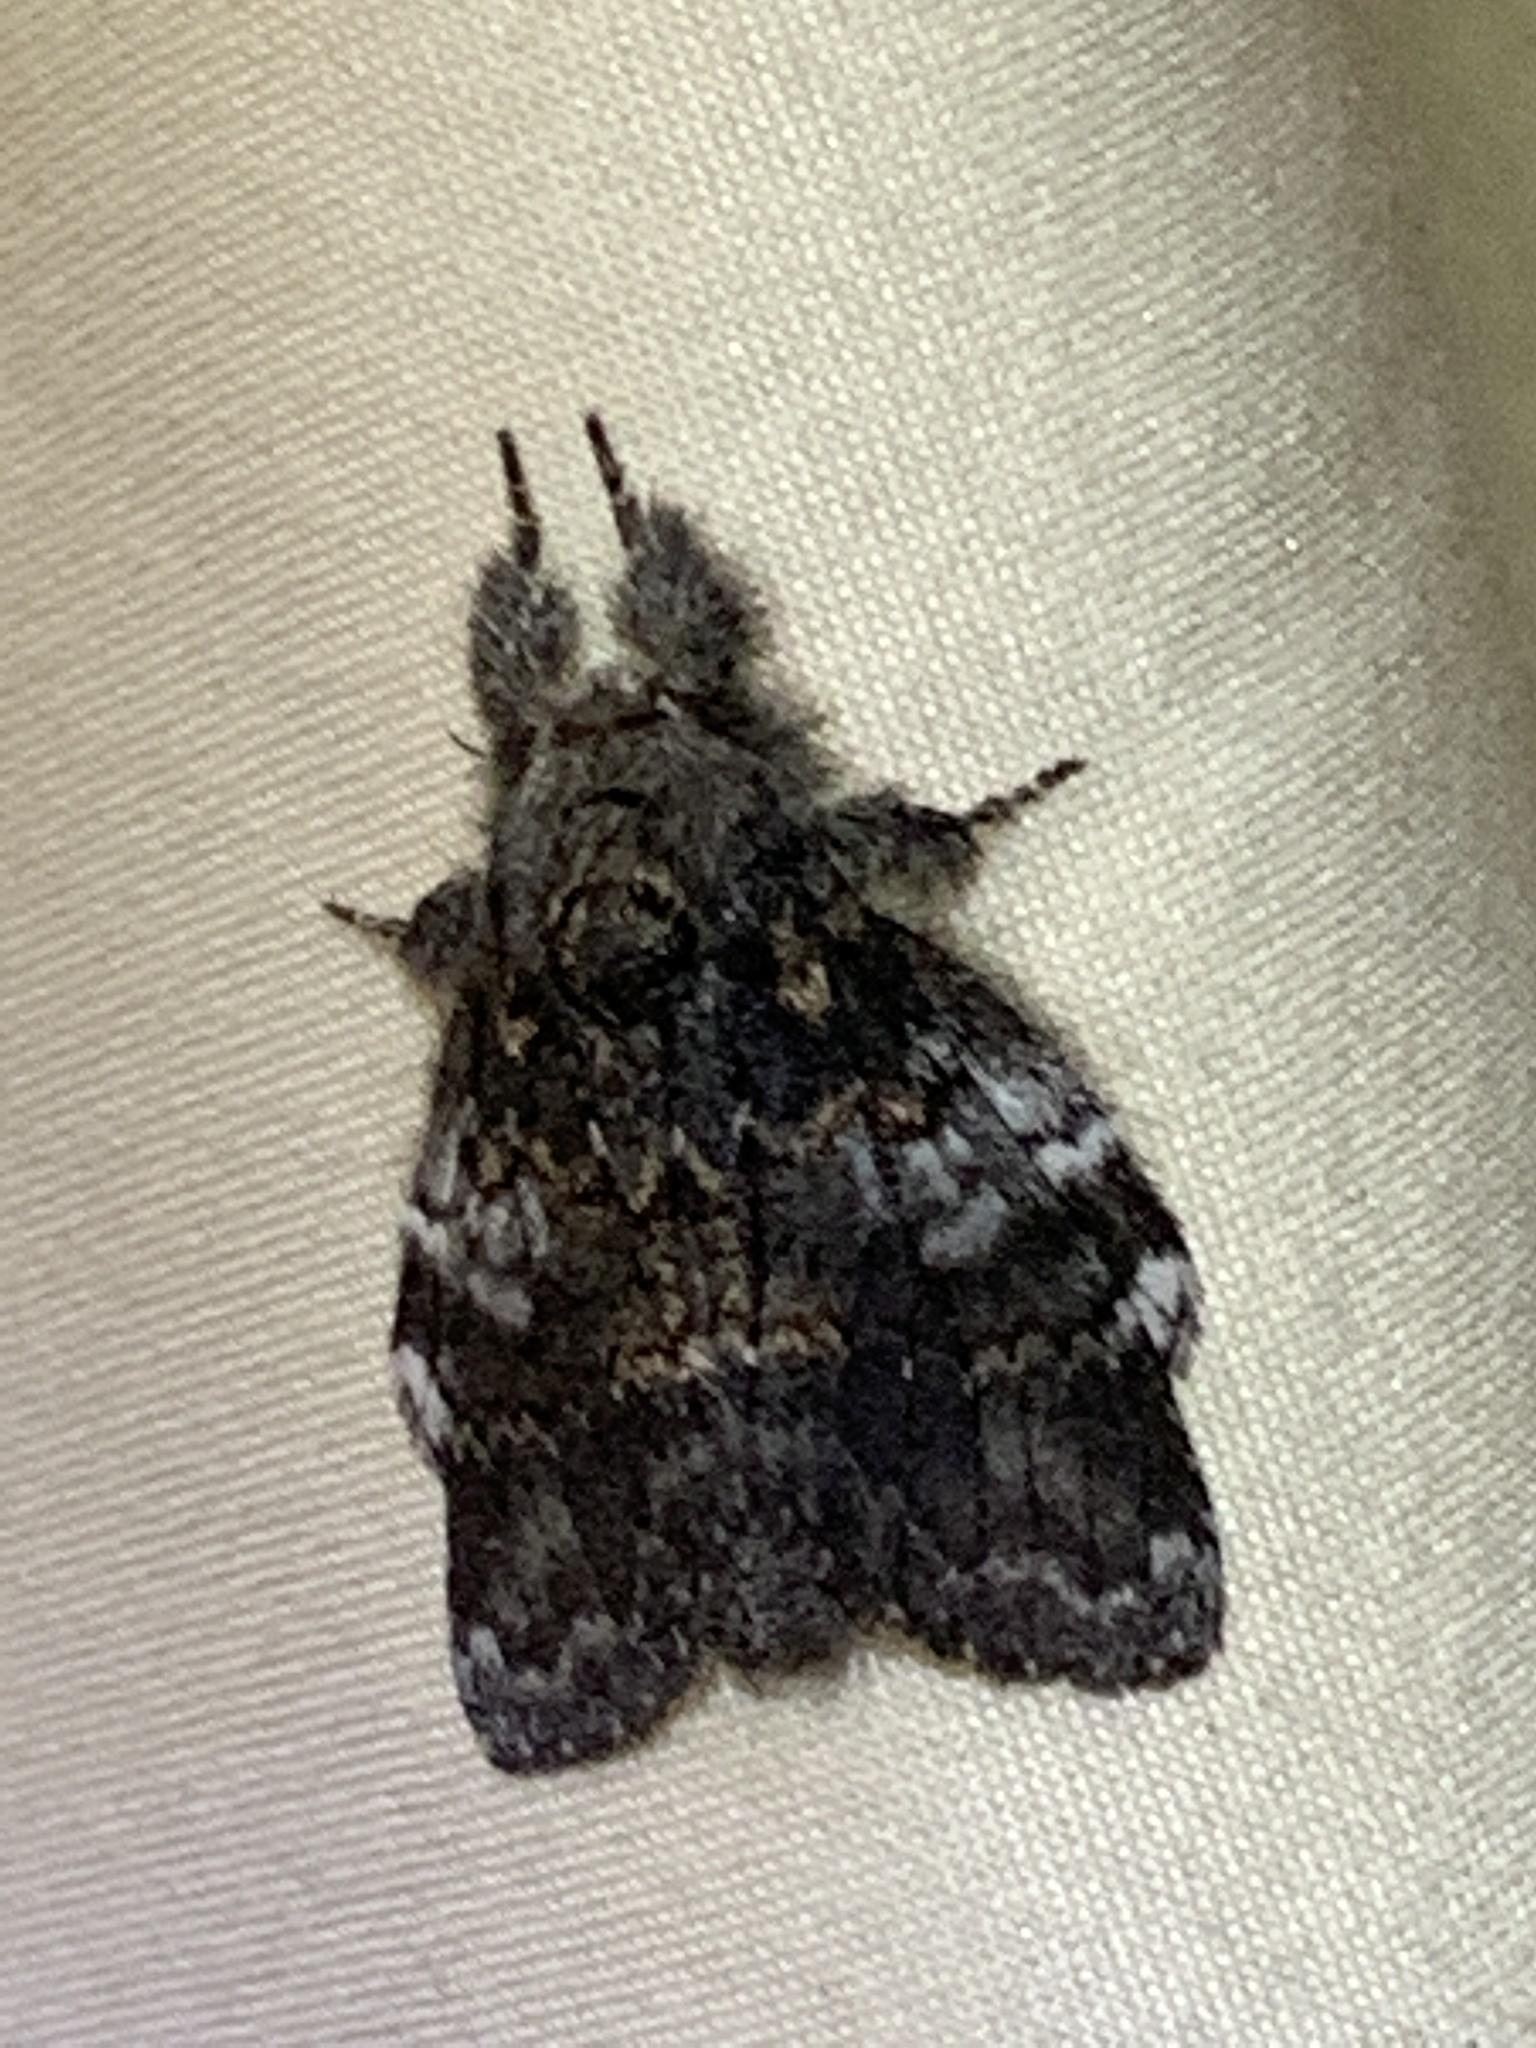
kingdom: Animalia
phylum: Arthropoda
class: Insecta
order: Lepidoptera
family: Notodontidae
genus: Peridea
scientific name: Peridea angulosa
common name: Angulose prominent
